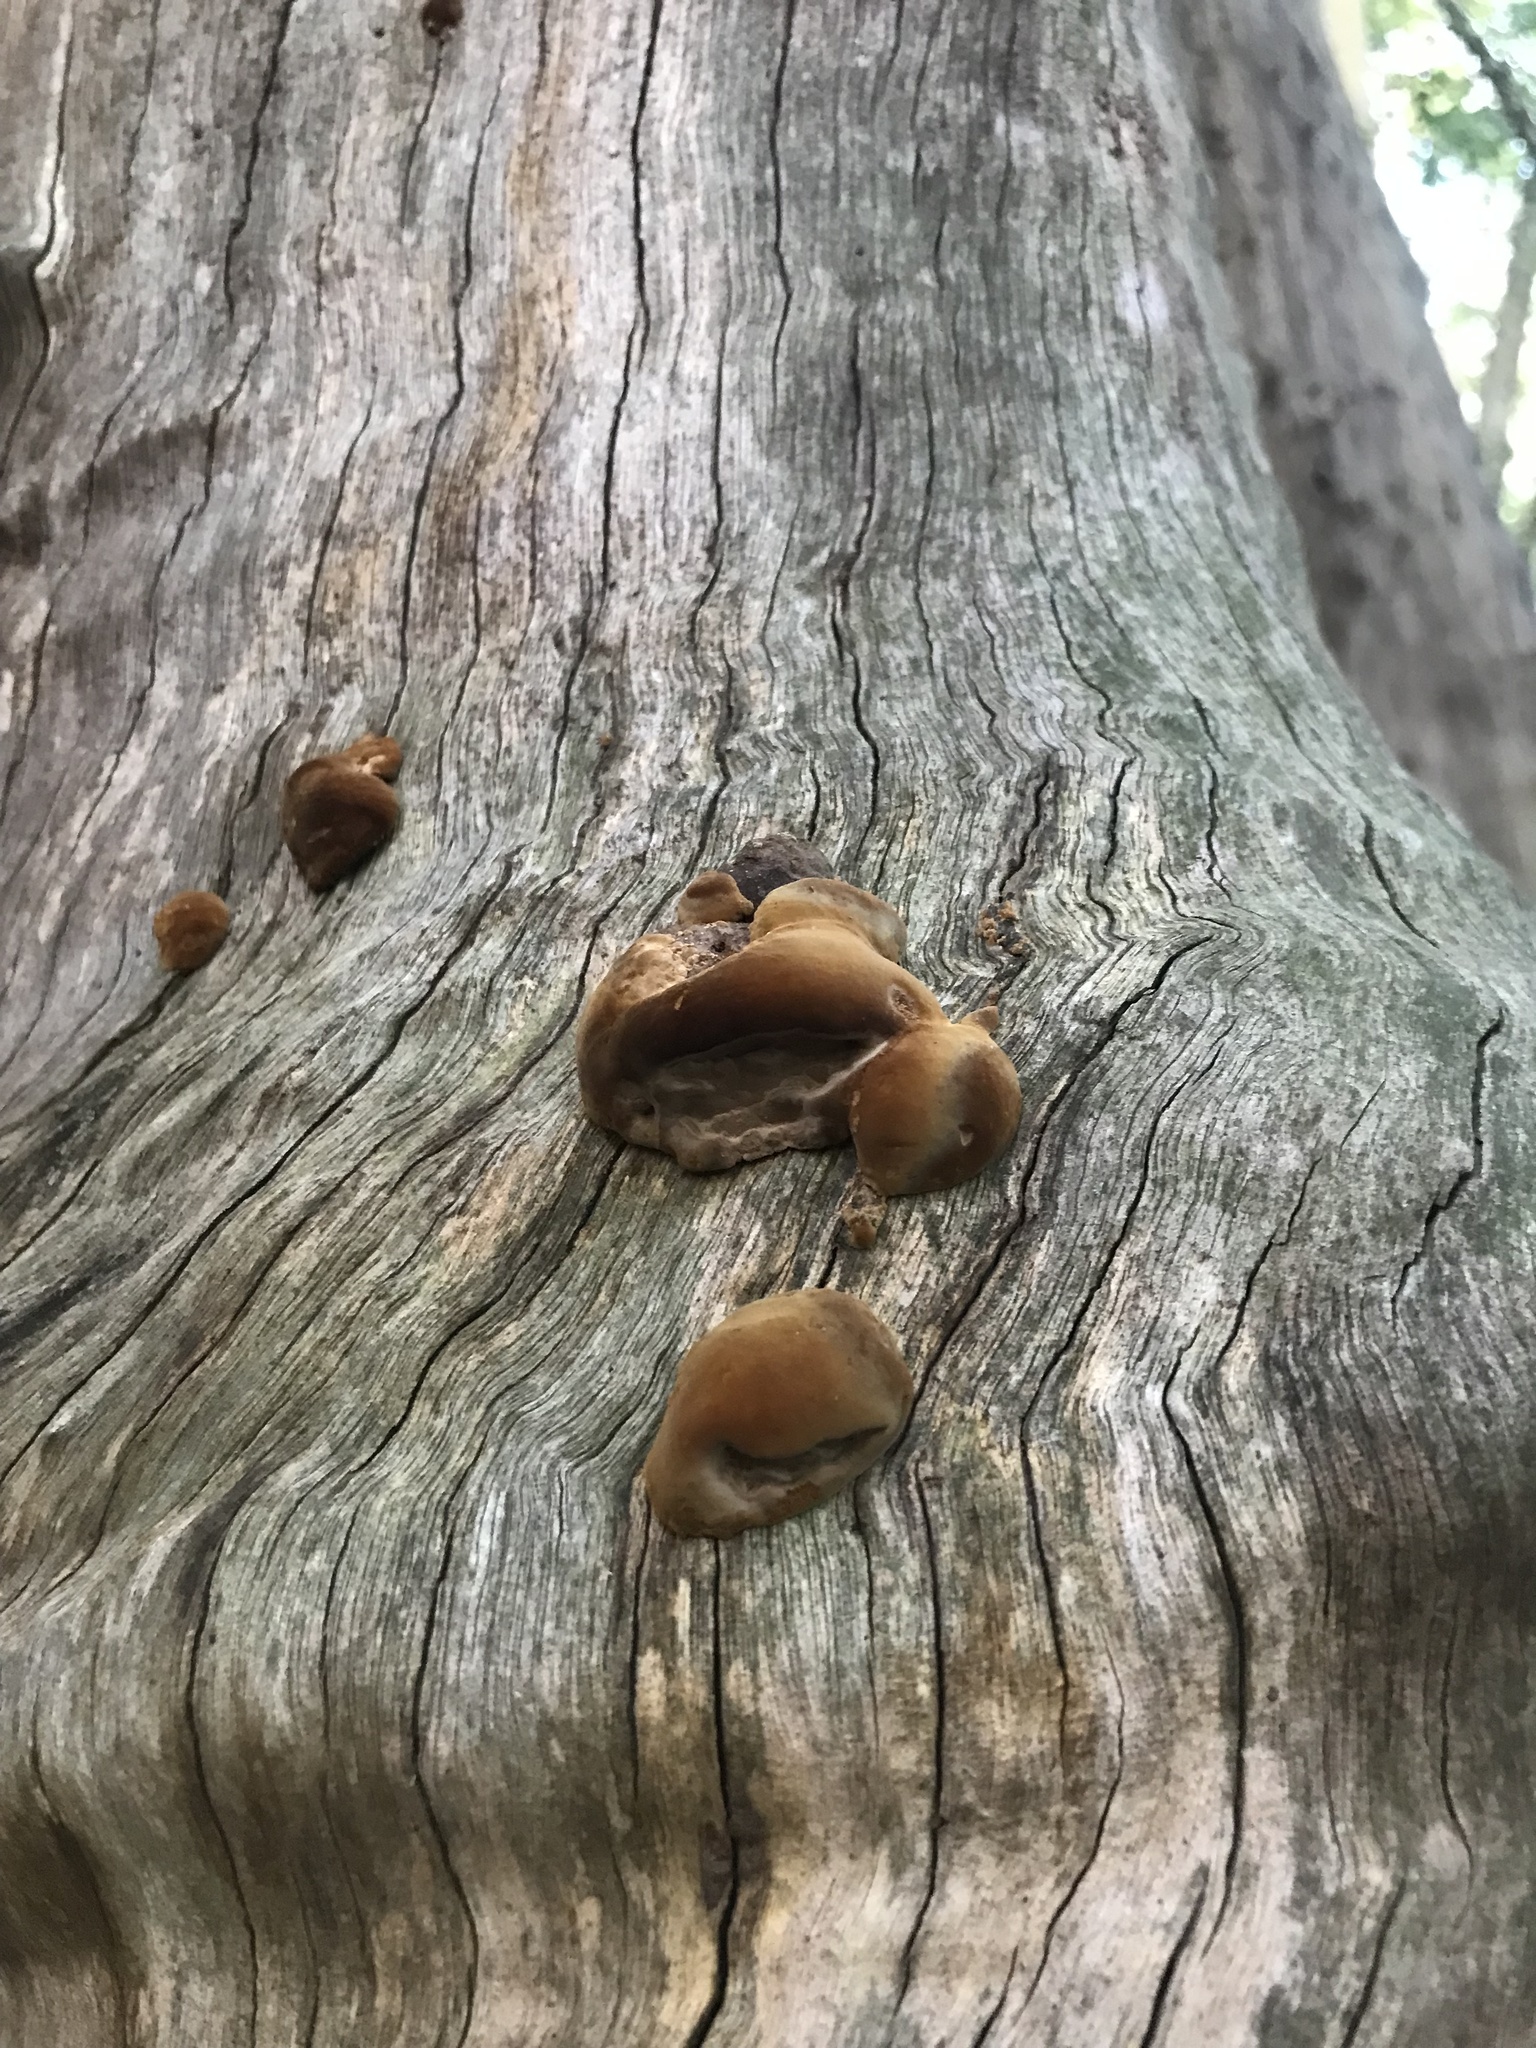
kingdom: Fungi
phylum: Basidiomycota
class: Agaricomycetes
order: Hymenochaetales
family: Hymenochaetaceae
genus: Fuscoporia
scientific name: Fuscoporia torulosa
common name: Tufted bracket
